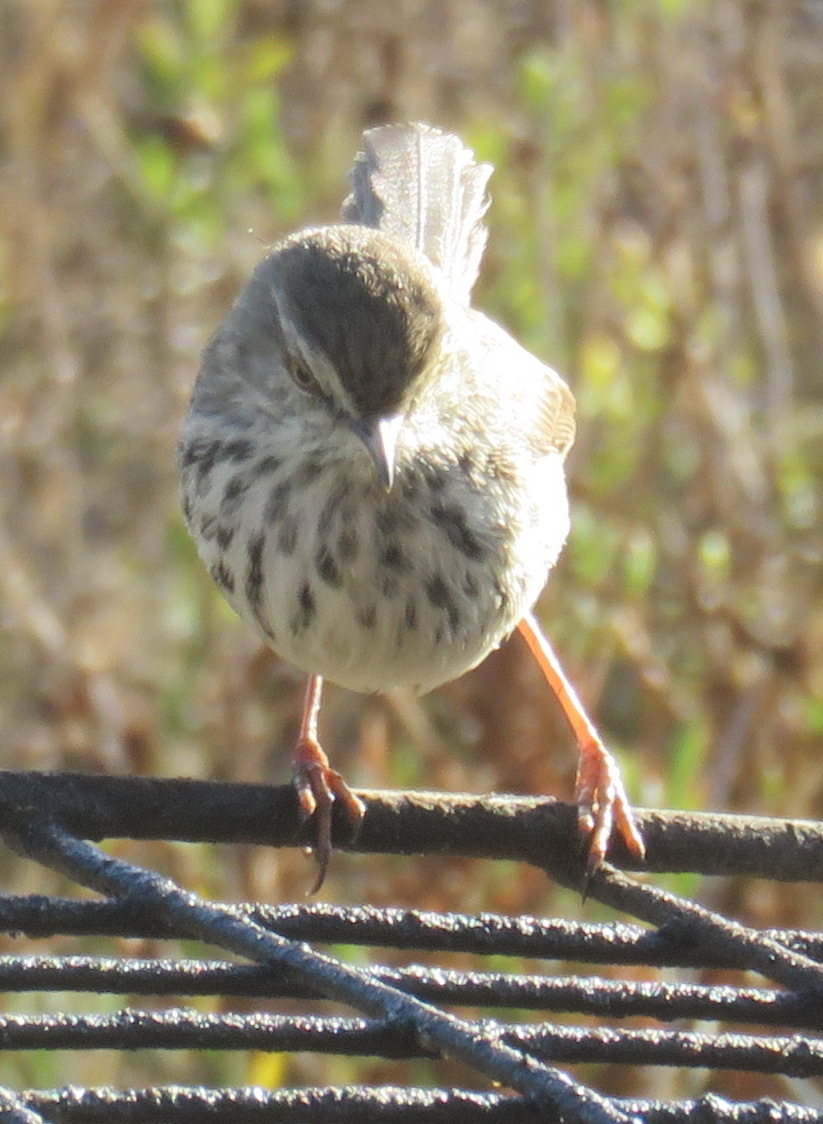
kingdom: Animalia
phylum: Chordata
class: Aves
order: Passeriformes
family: Cisticolidae
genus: Prinia
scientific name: Prinia maculosa
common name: Karoo prinia
